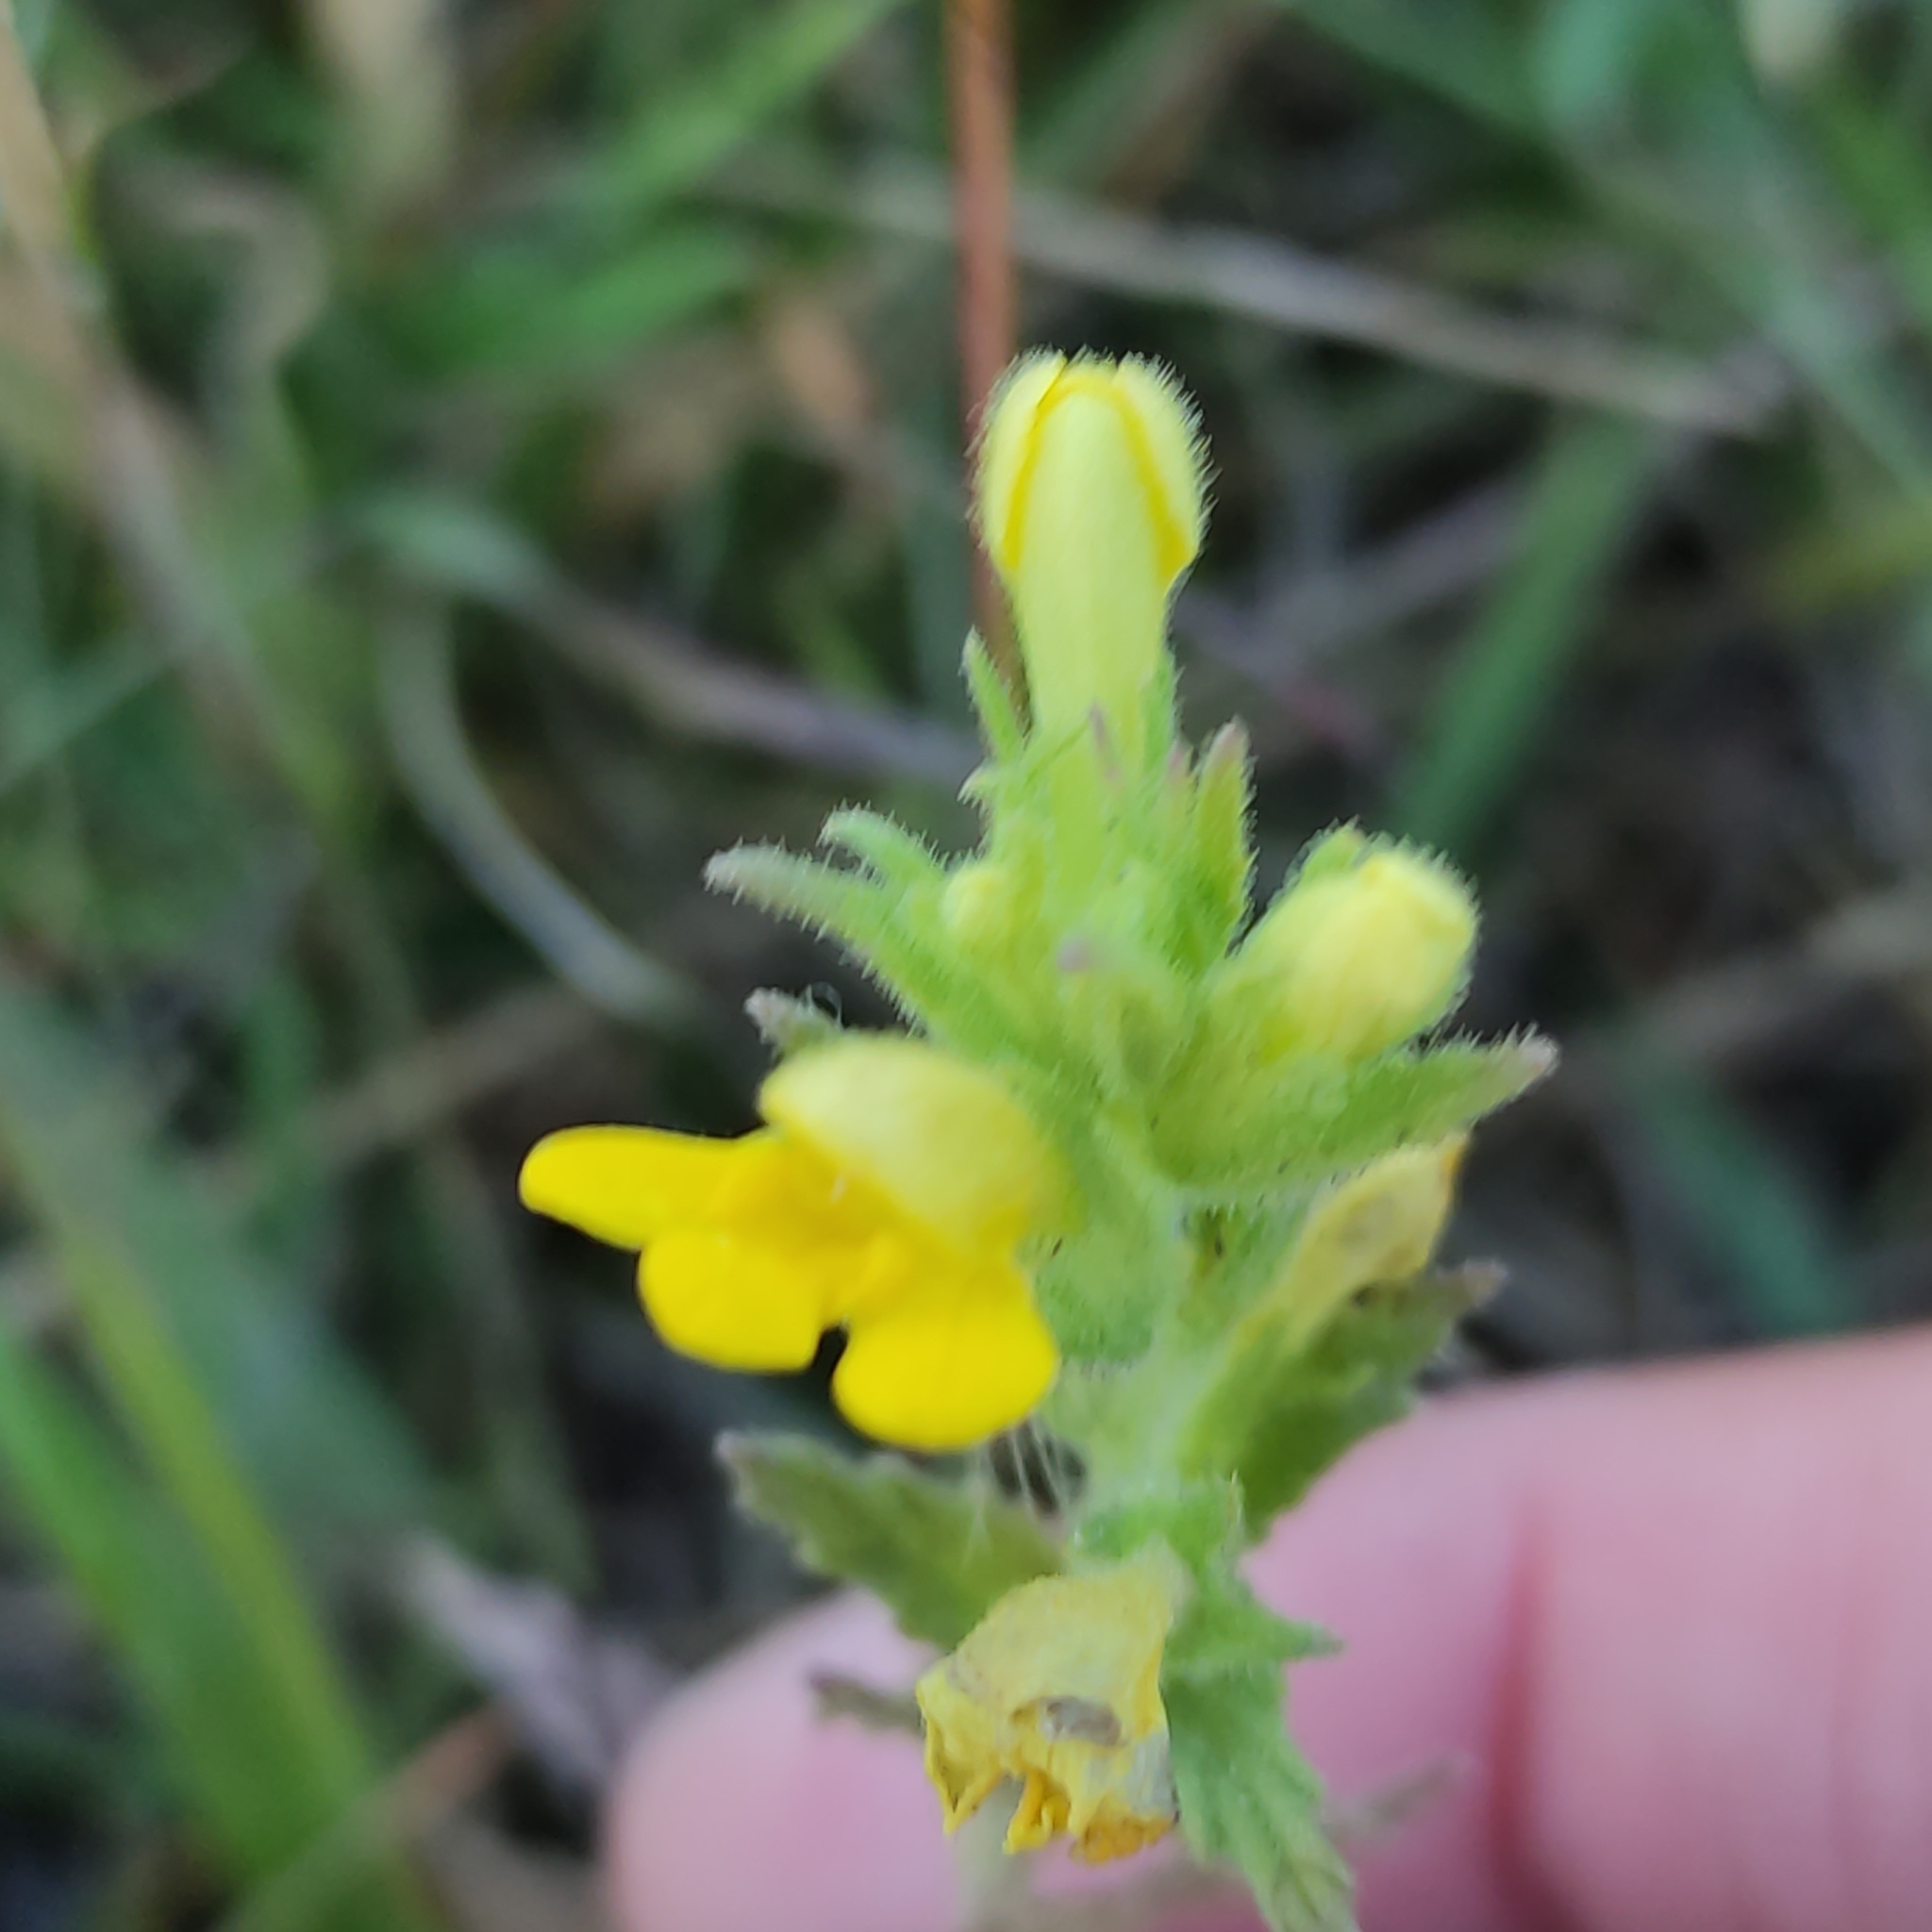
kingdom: Plantae
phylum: Tracheophyta
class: Magnoliopsida
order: Lamiales
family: Orobanchaceae
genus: Bellardia
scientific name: Bellardia viscosa
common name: Sticky parentucellia
